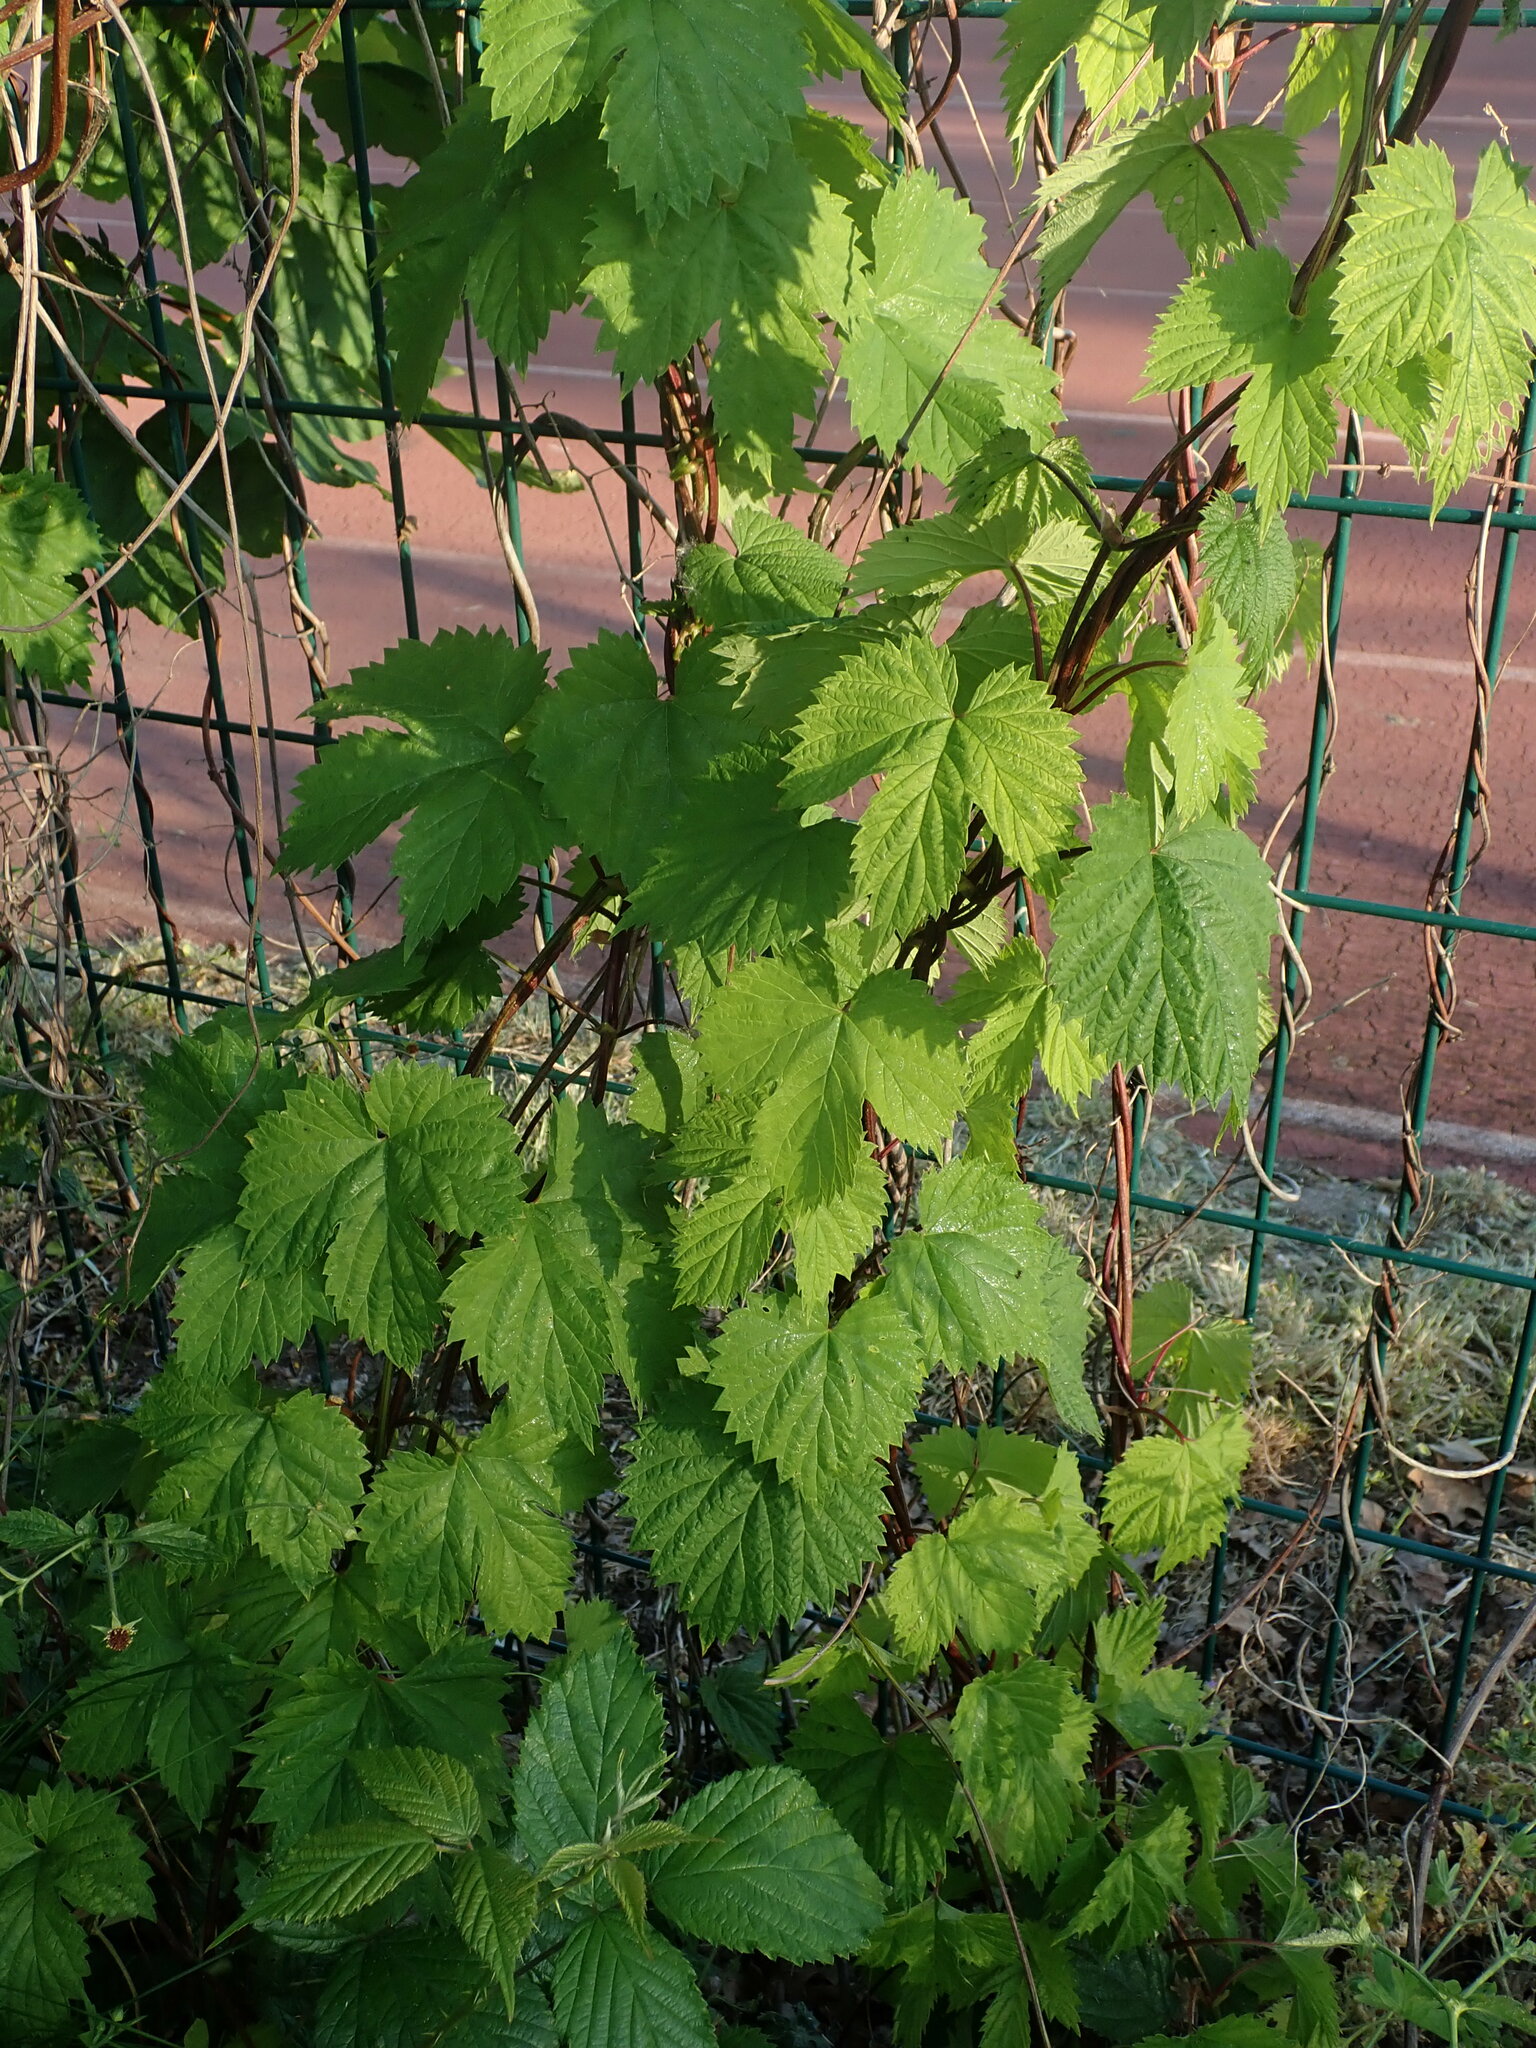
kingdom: Plantae
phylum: Tracheophyta
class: Magnoliopsida
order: Rosales
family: Cannabaceae
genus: Humulus
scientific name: Humulus lupulus
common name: Hop
